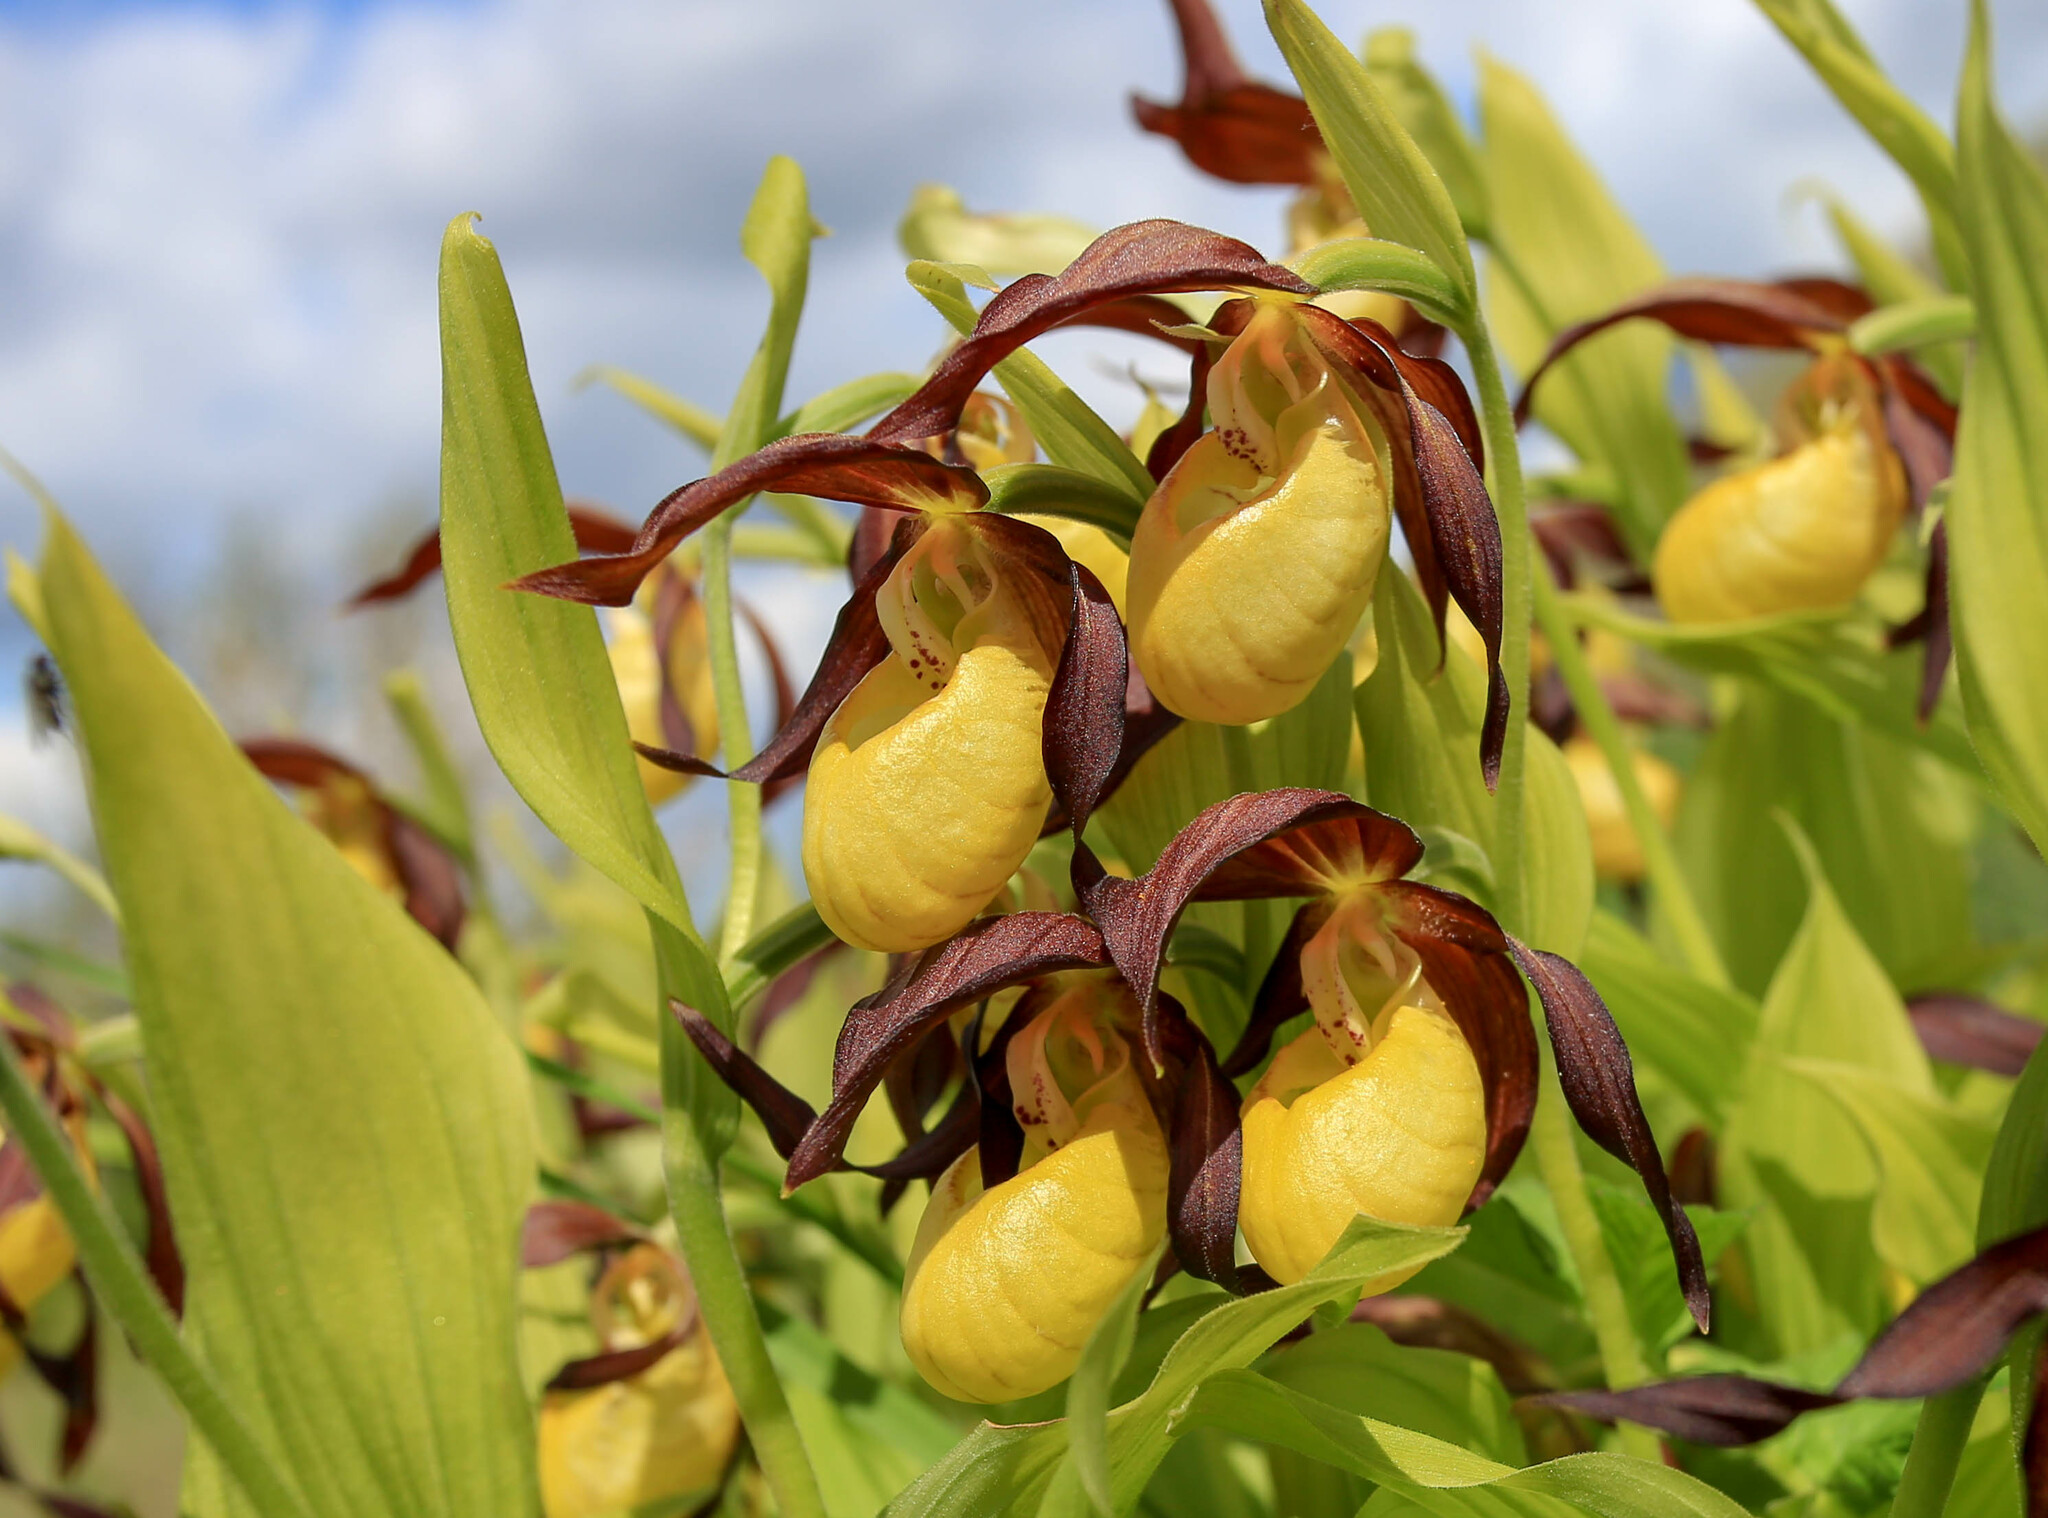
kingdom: Plantae
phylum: Tracheophyta
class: Liliopsida
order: Asparagales
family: Orchidaceae
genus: Cypripedium
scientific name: Cypripedium calceolus
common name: Lady's-slipper
